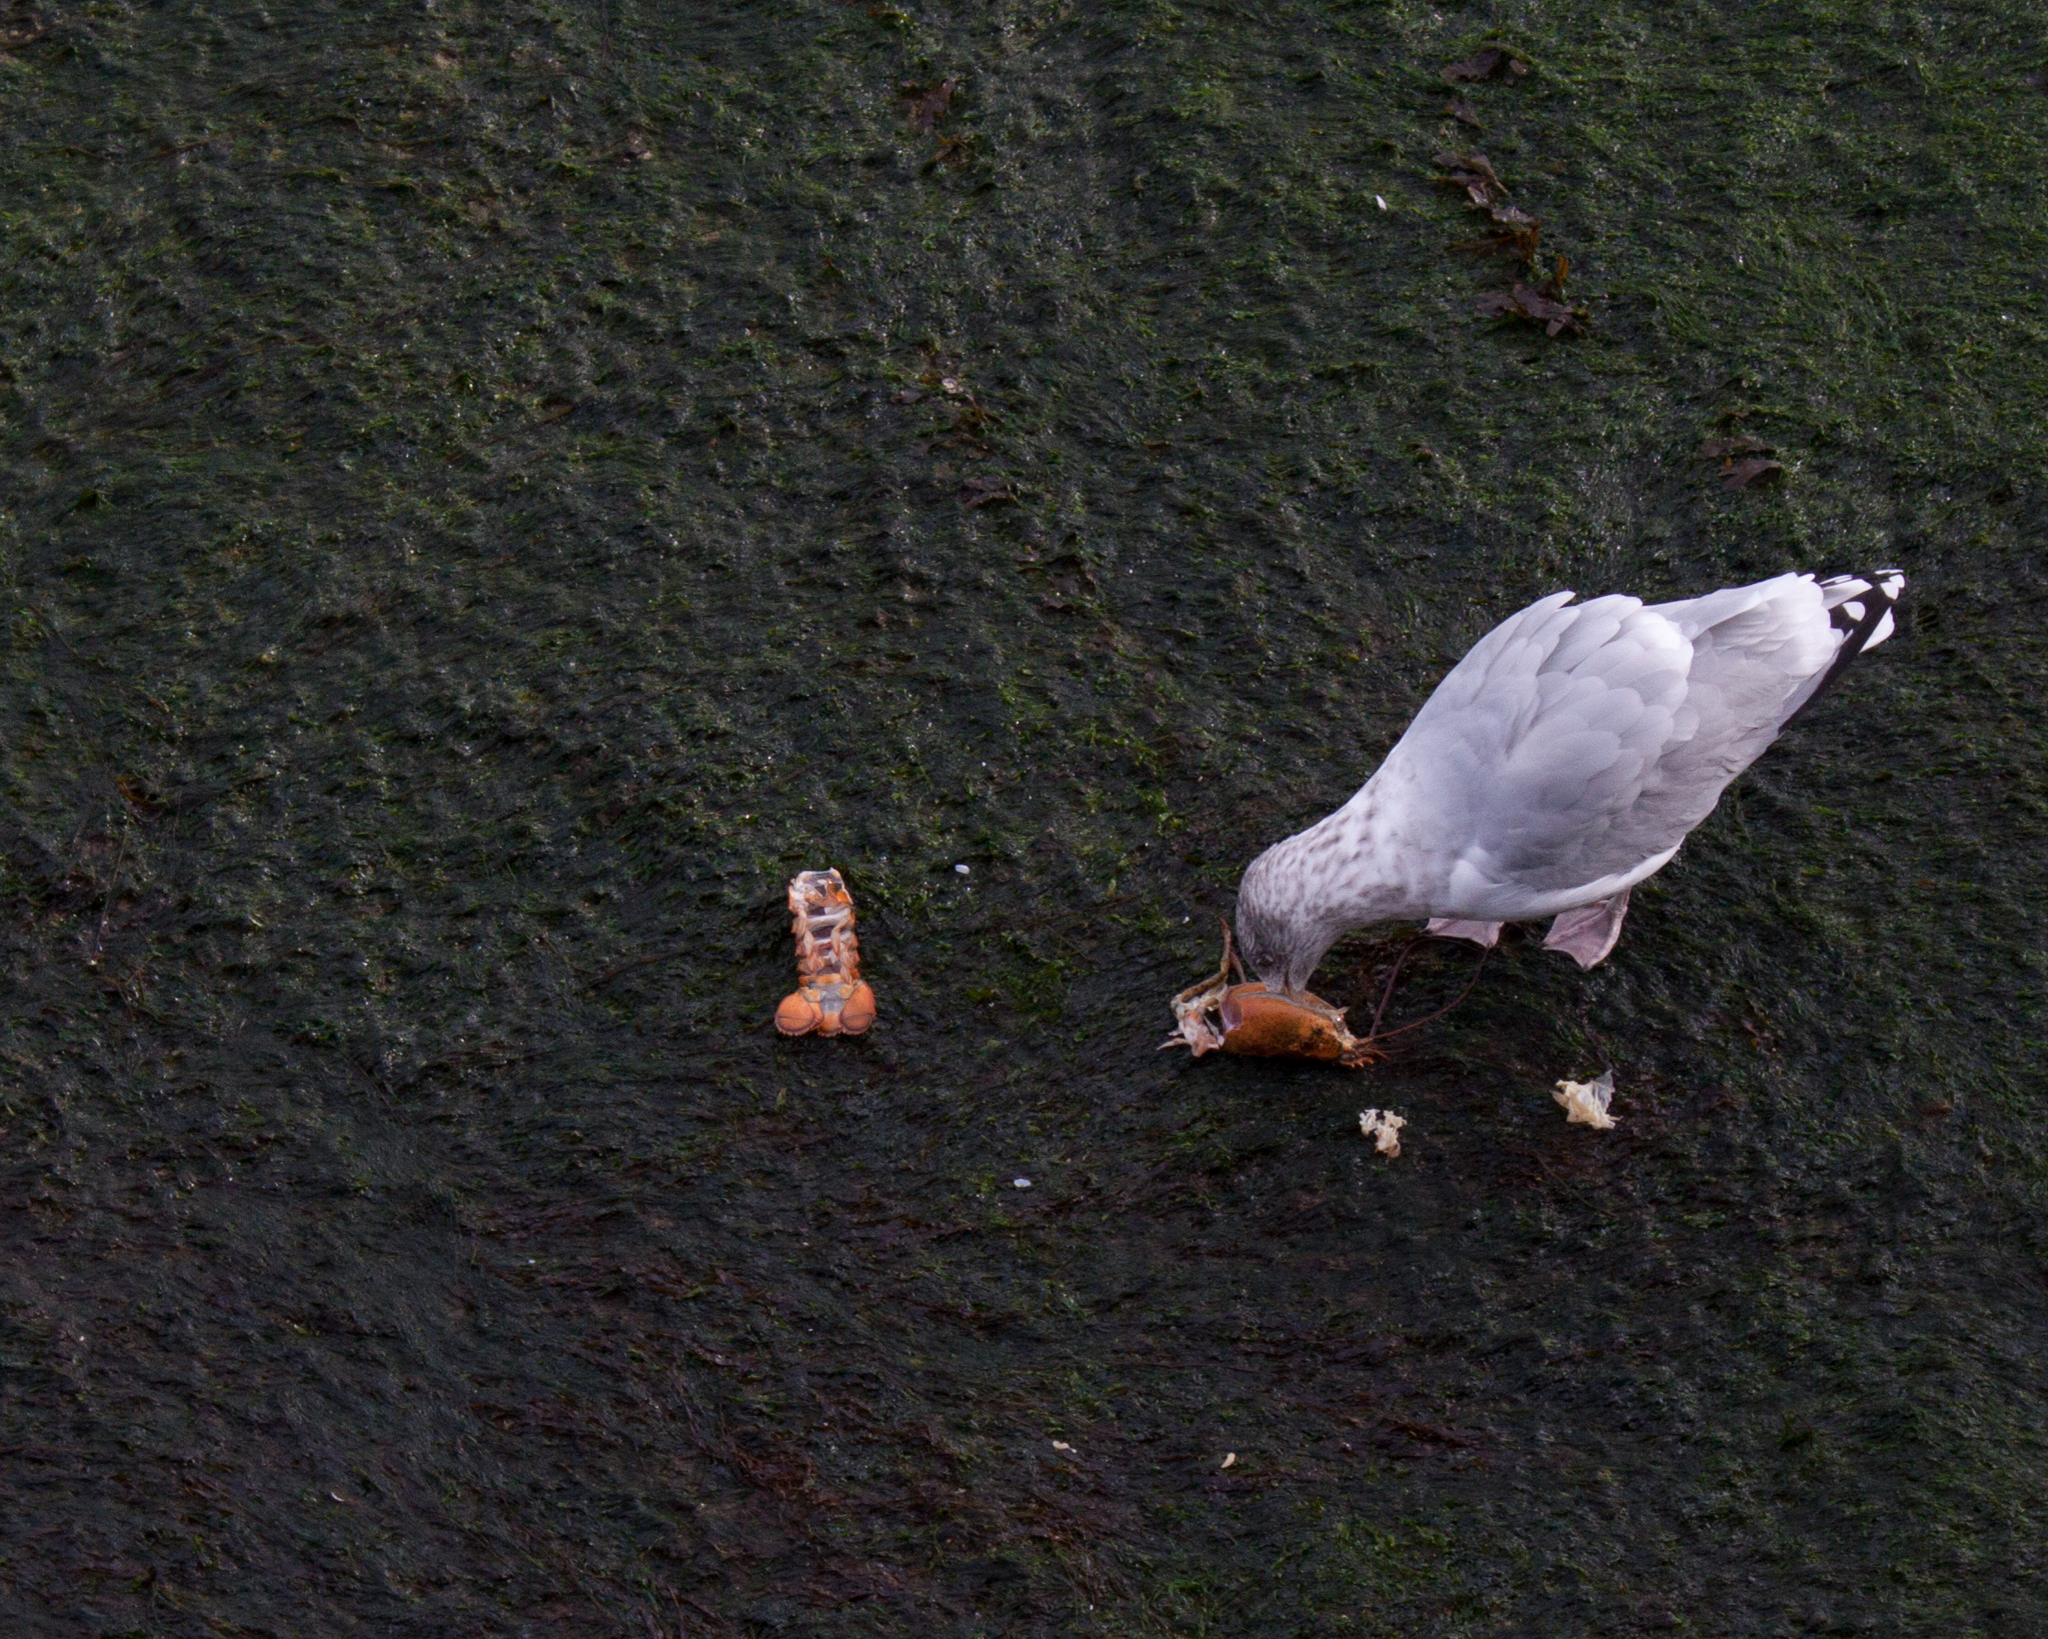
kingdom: Animalia
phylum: Chordata
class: Aves
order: Charadriiformes
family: Laridae
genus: Larus
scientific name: Larus argentatus
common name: Herring gull
